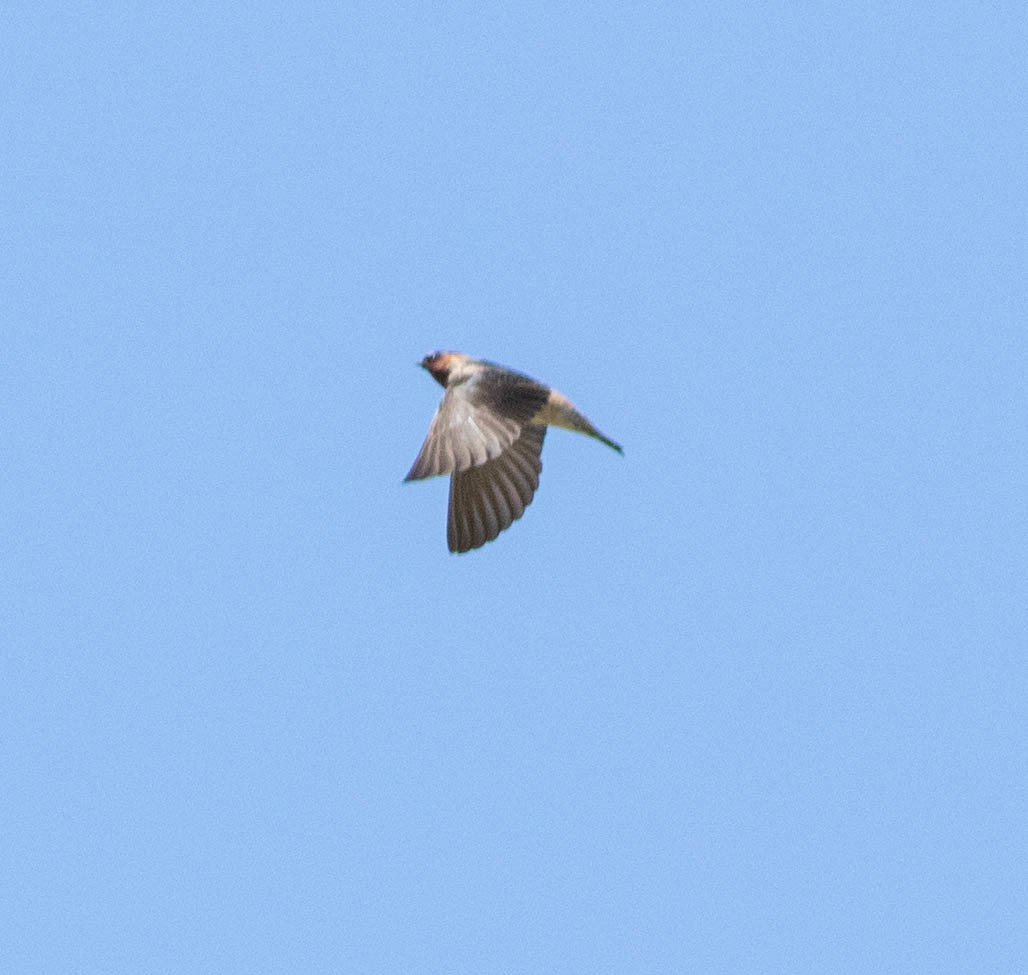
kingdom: Animalia
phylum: Chordata
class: Aves
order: Passeriformes
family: Hirundinidae
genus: Petrochelidon
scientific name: Petrochelidon pyrrhonota
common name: American cliff swallow
